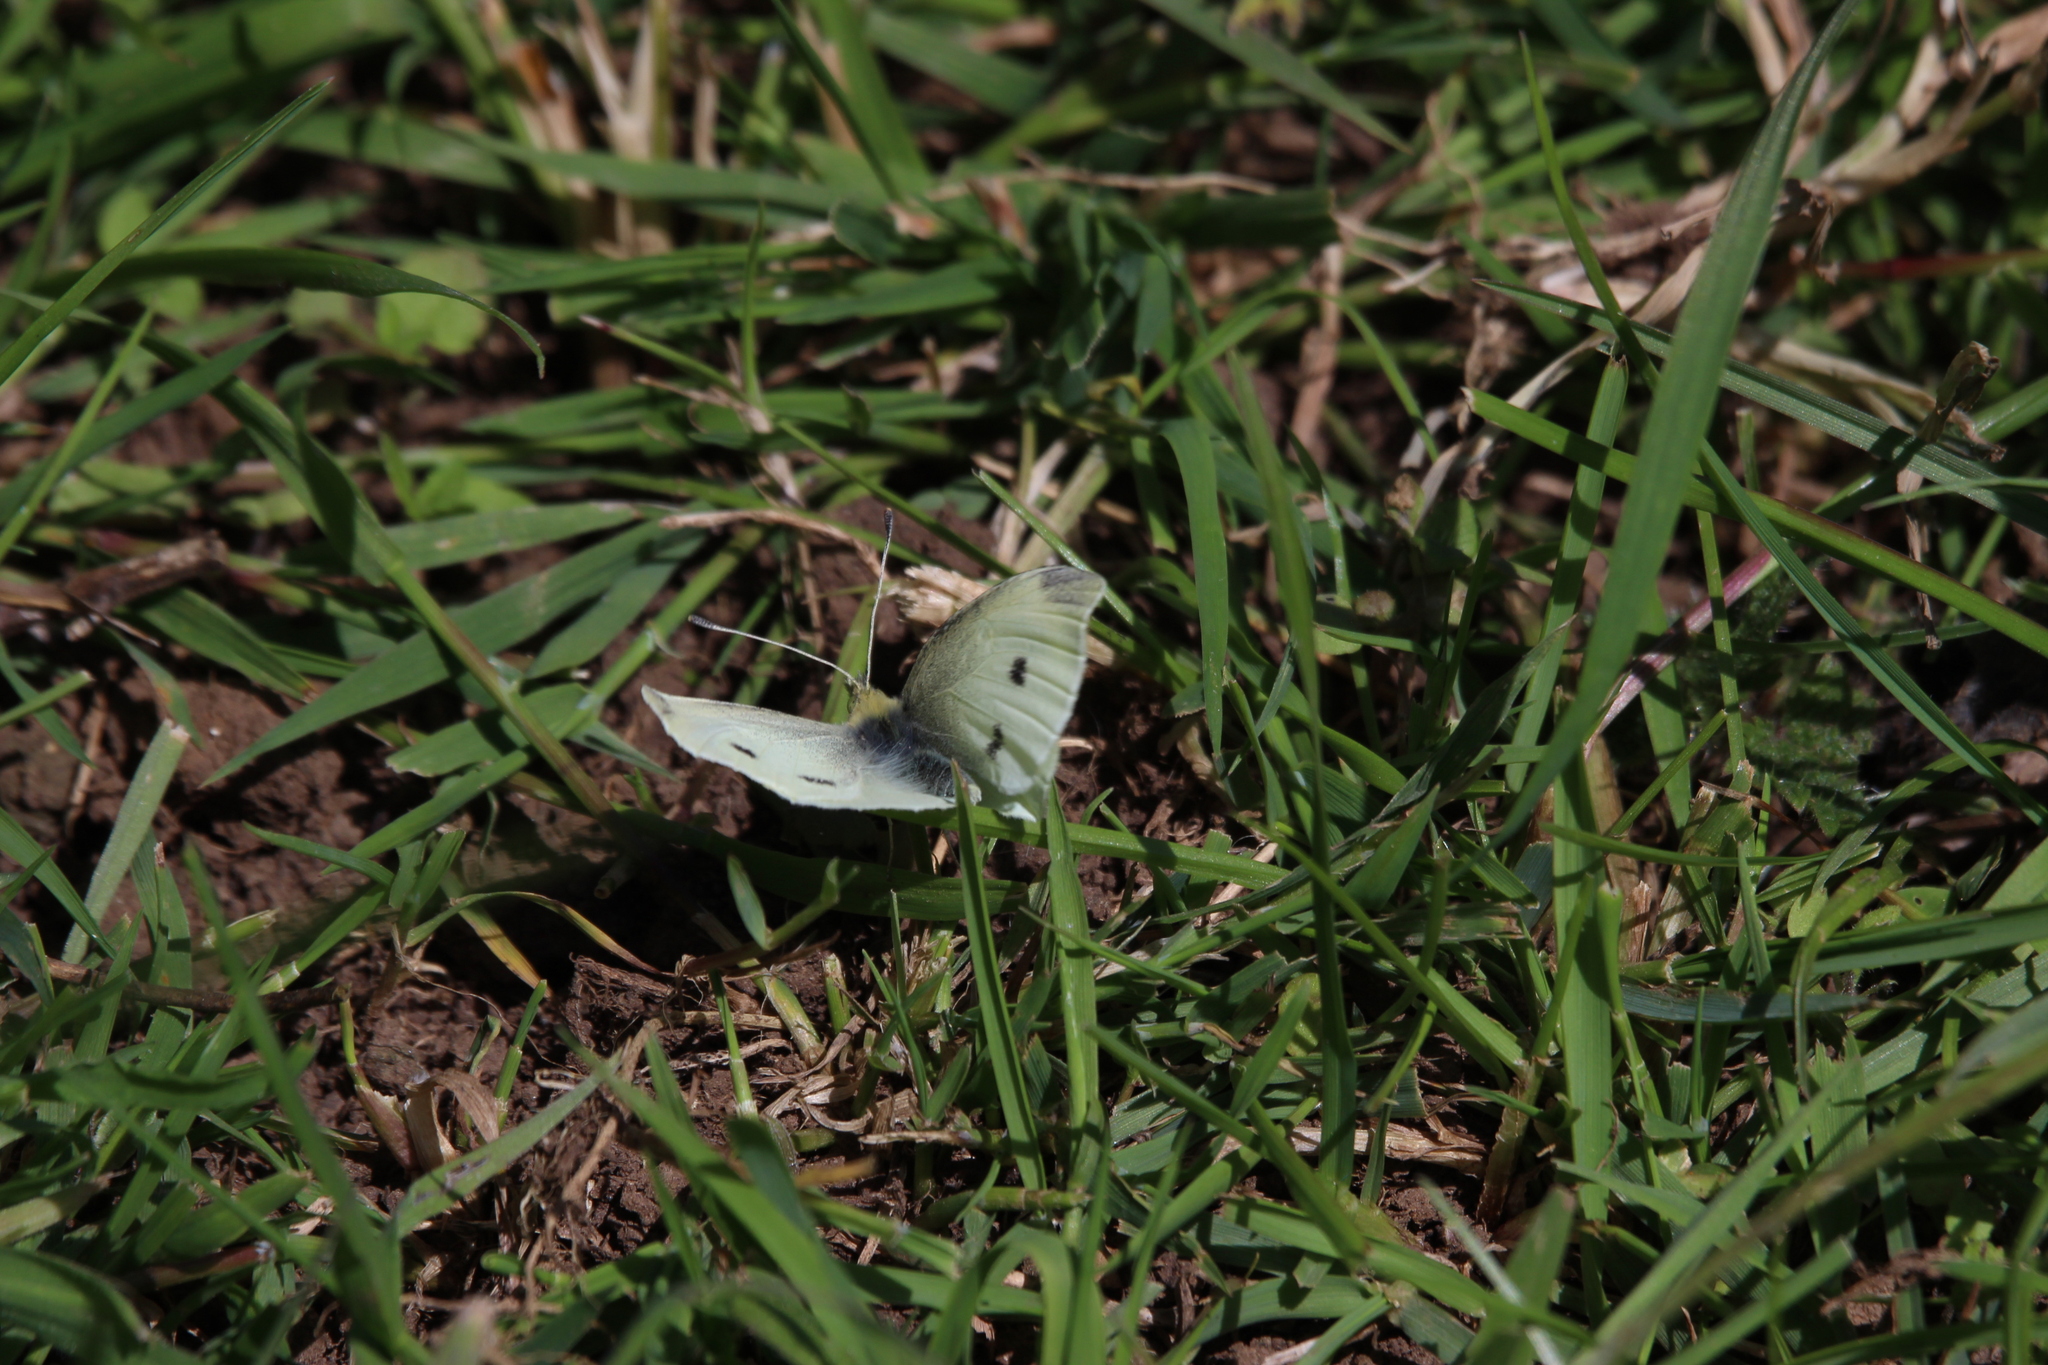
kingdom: Animalia
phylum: Arthropoda
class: Insecta
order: Lepidoptera
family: Pieridae
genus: Pieris
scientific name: Pieris rapae
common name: Small white
